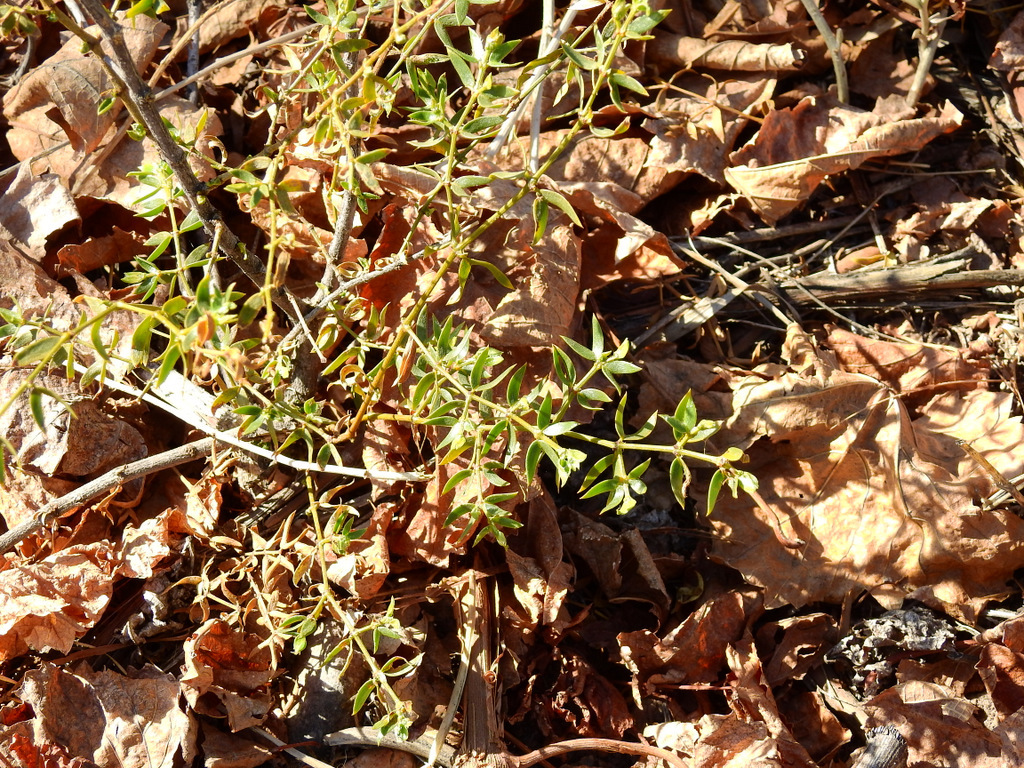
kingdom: Plantae
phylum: Tracheophyta
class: Magnoliopsida
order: Zygophyllales
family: Zygophyllaceae
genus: Larrea
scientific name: Larrea divaricata
